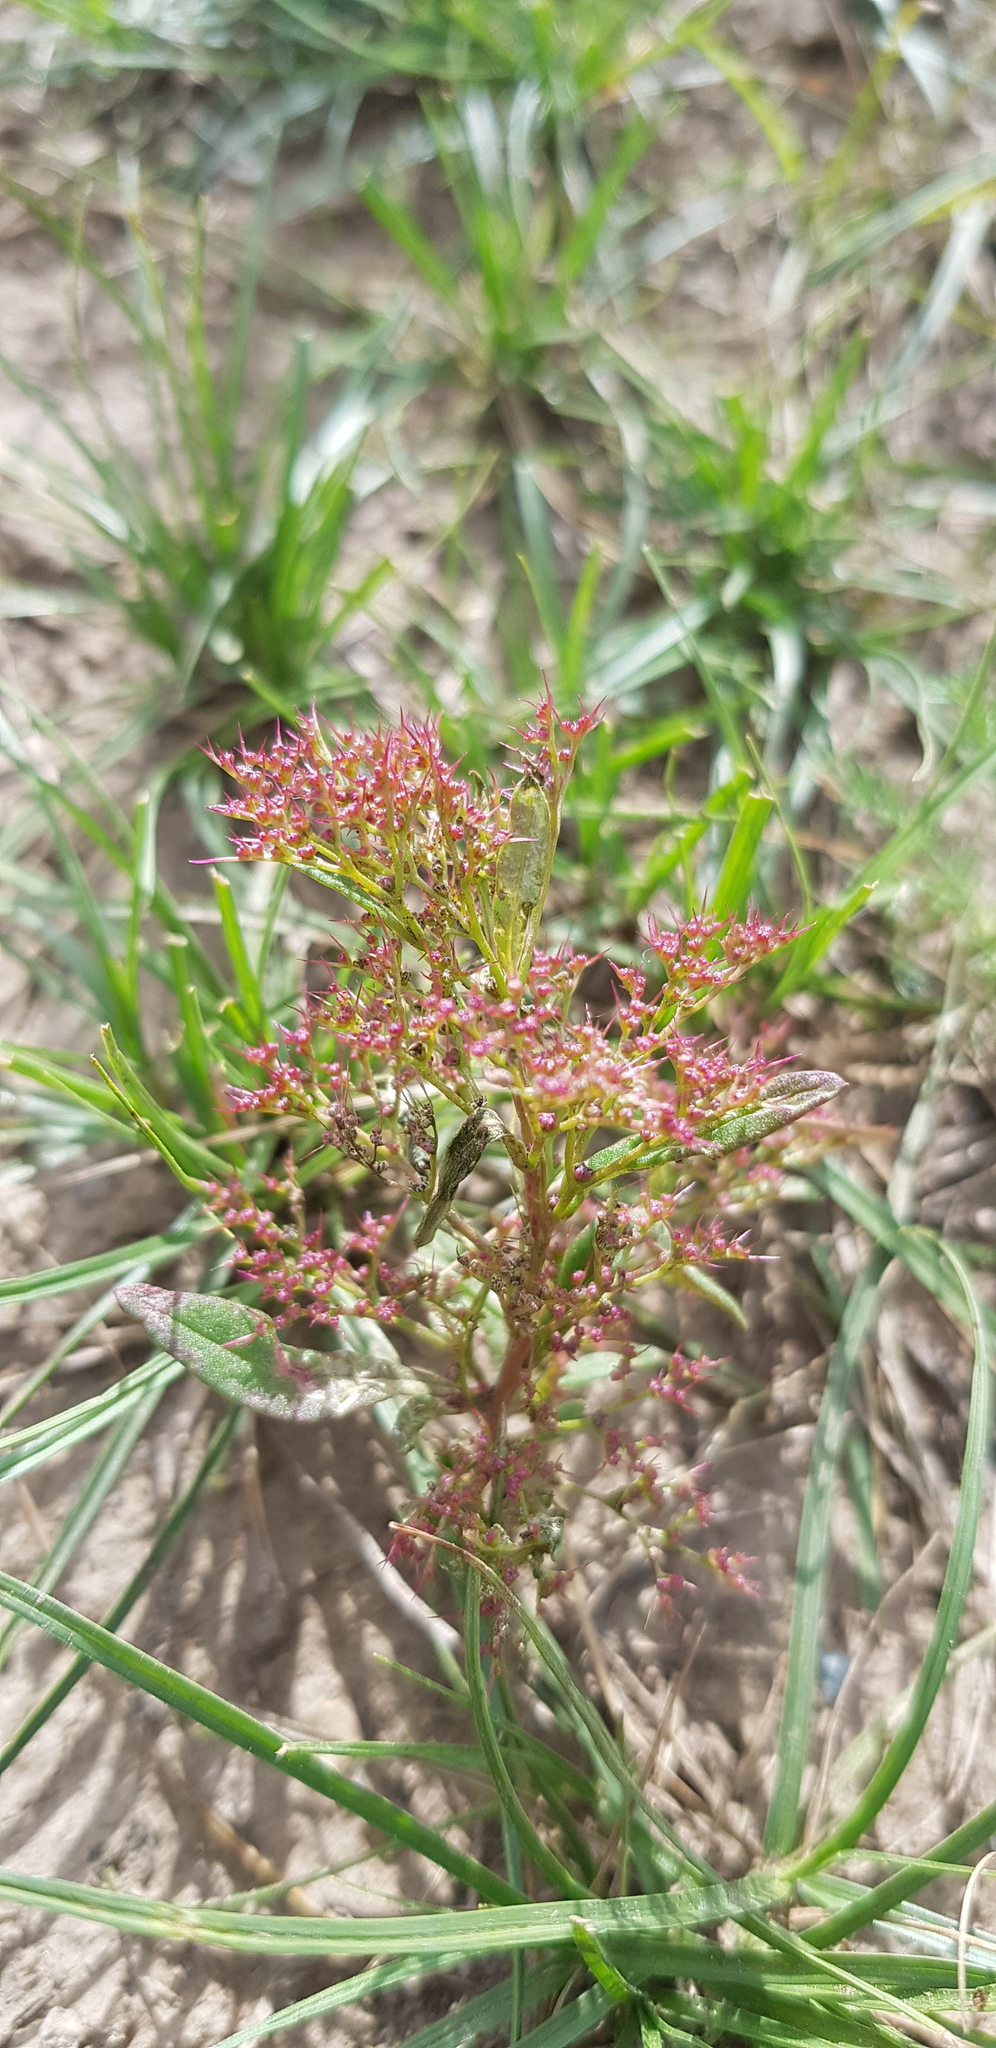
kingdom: Plantae
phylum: Tracheophyta
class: Magnoliopsida
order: Caryophyllales
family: Amaranthaceae
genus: Teloxys
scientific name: Teloxys aristata
